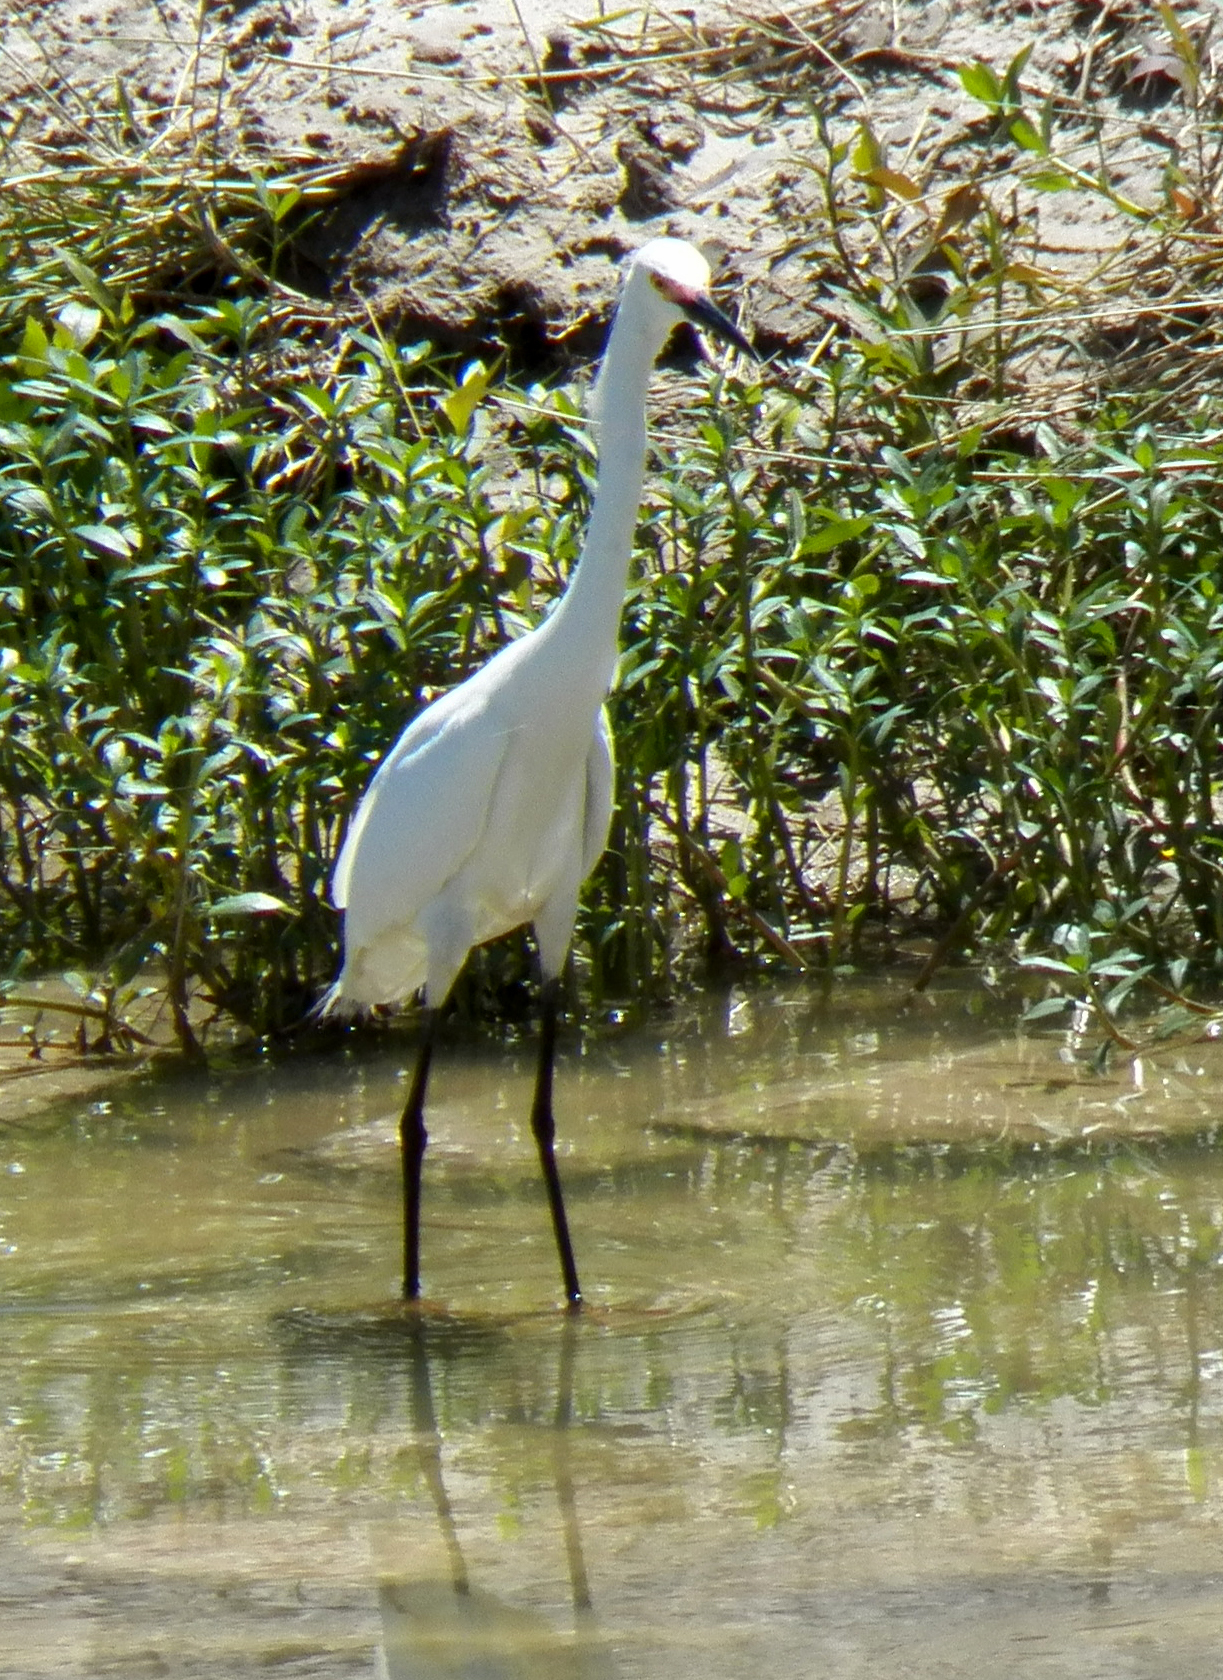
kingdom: Animalia
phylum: Chordata
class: Aves
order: Pelecaniformes
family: Ardeidae
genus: Egretta
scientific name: Egretta thula
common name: Snowy egret
